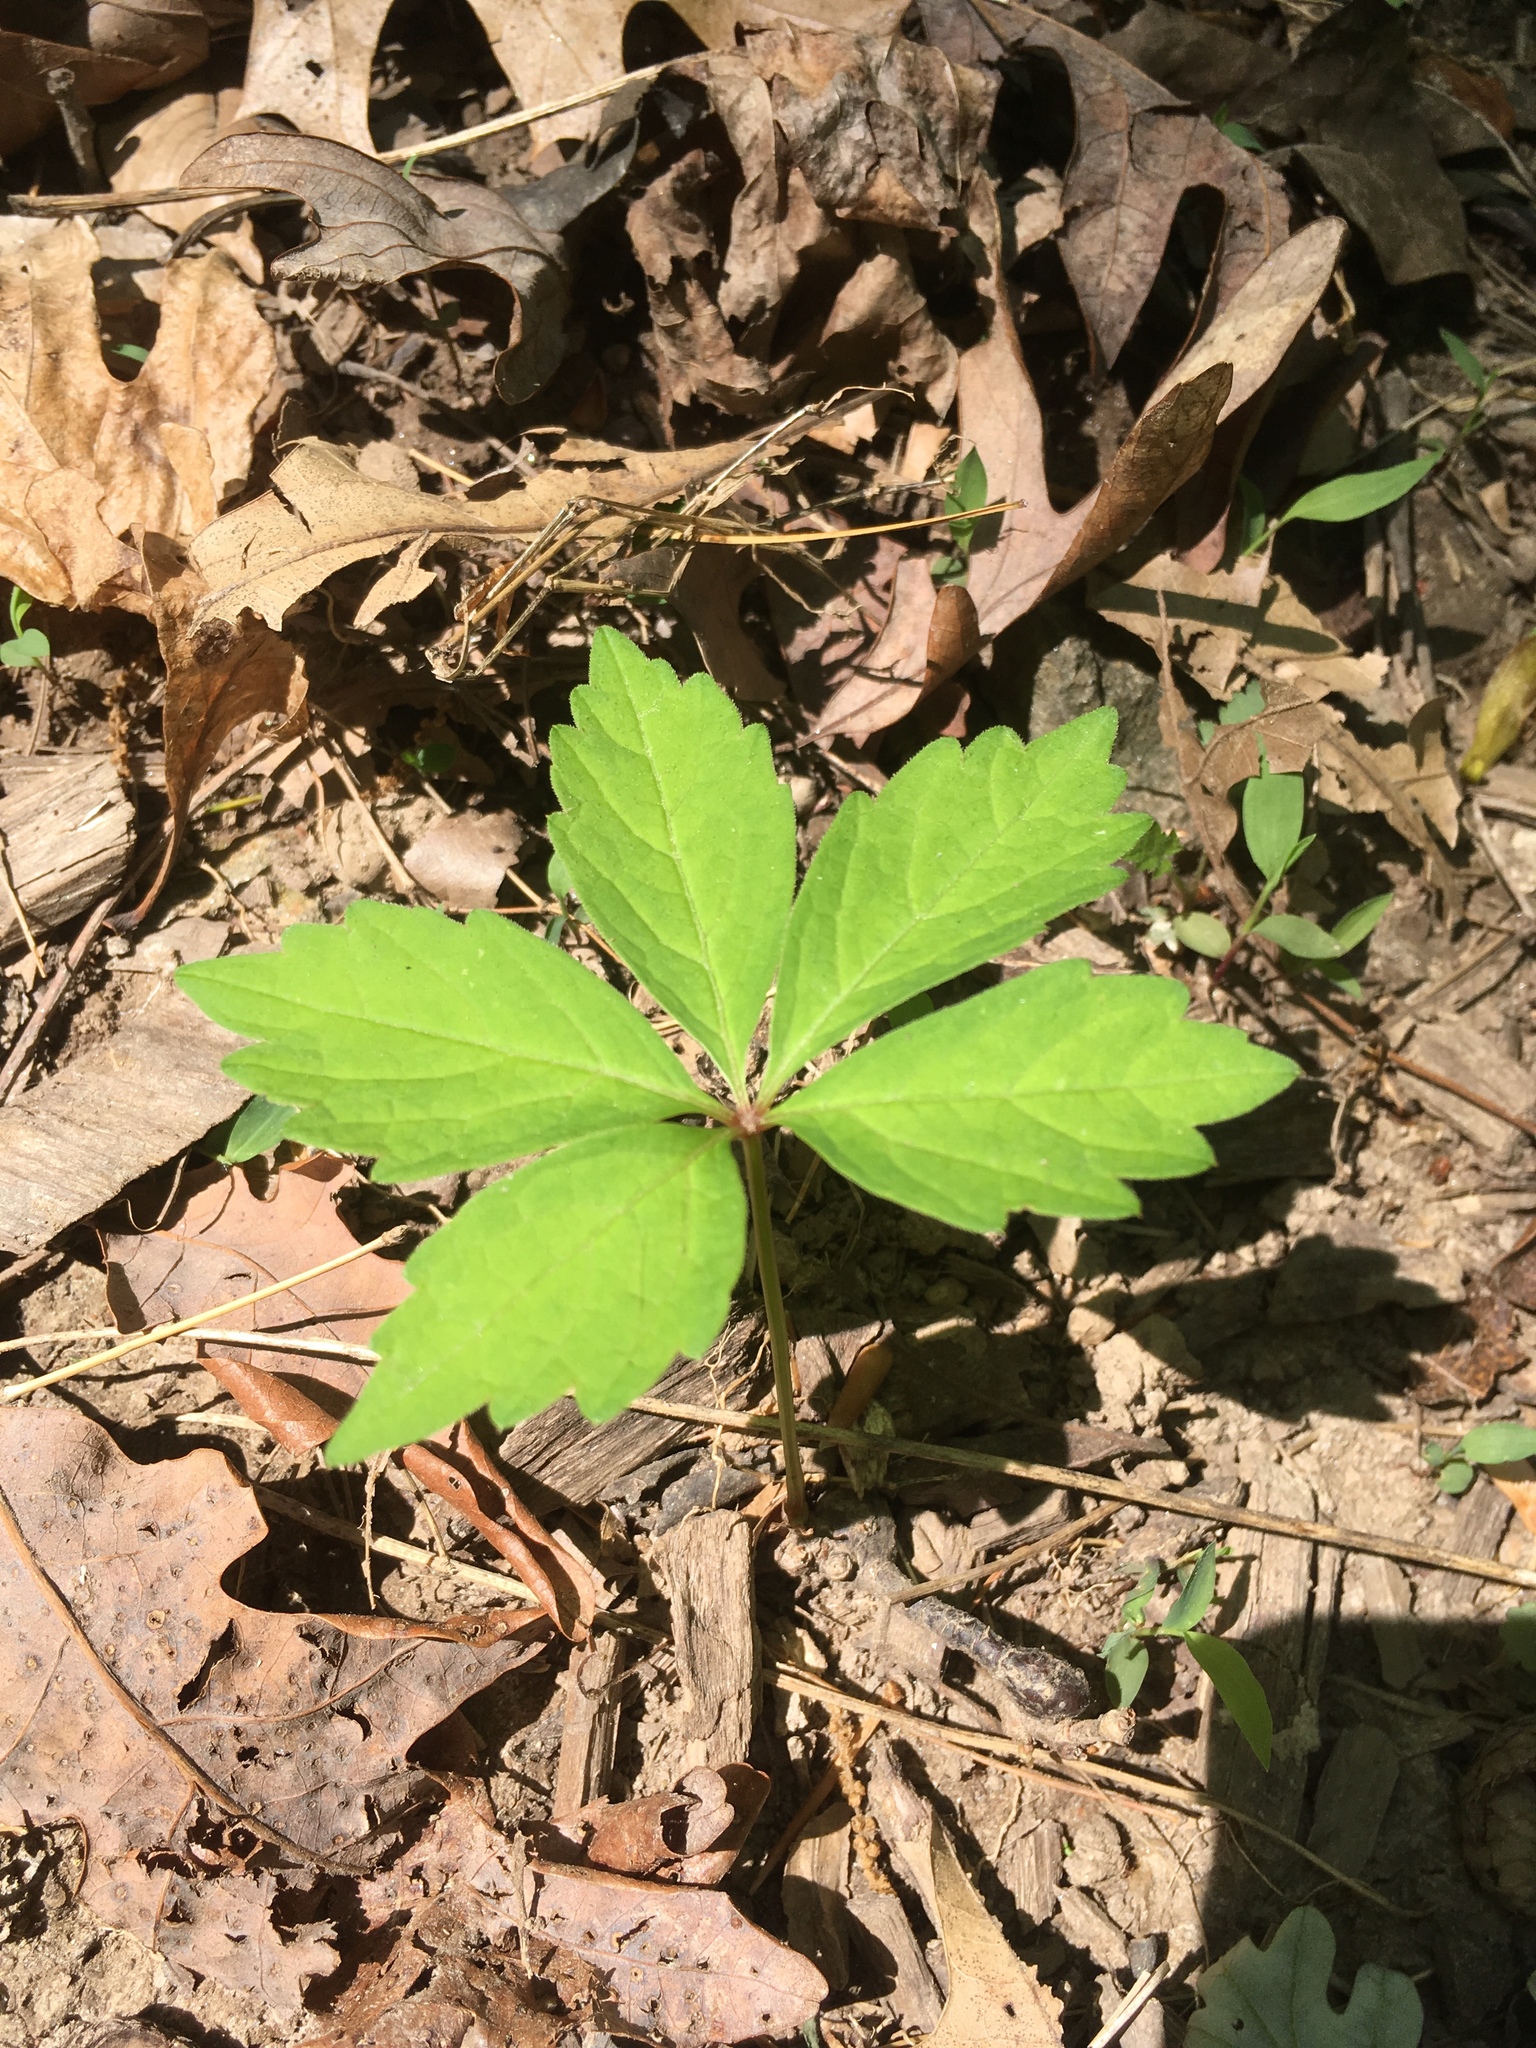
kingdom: Plantae
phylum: Tracheophyta
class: Magnoliopsida
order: Vitales
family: Vitaceae
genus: Parthenocissus
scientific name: Parthenocissus quinquefolia
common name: Virginia-creeper
